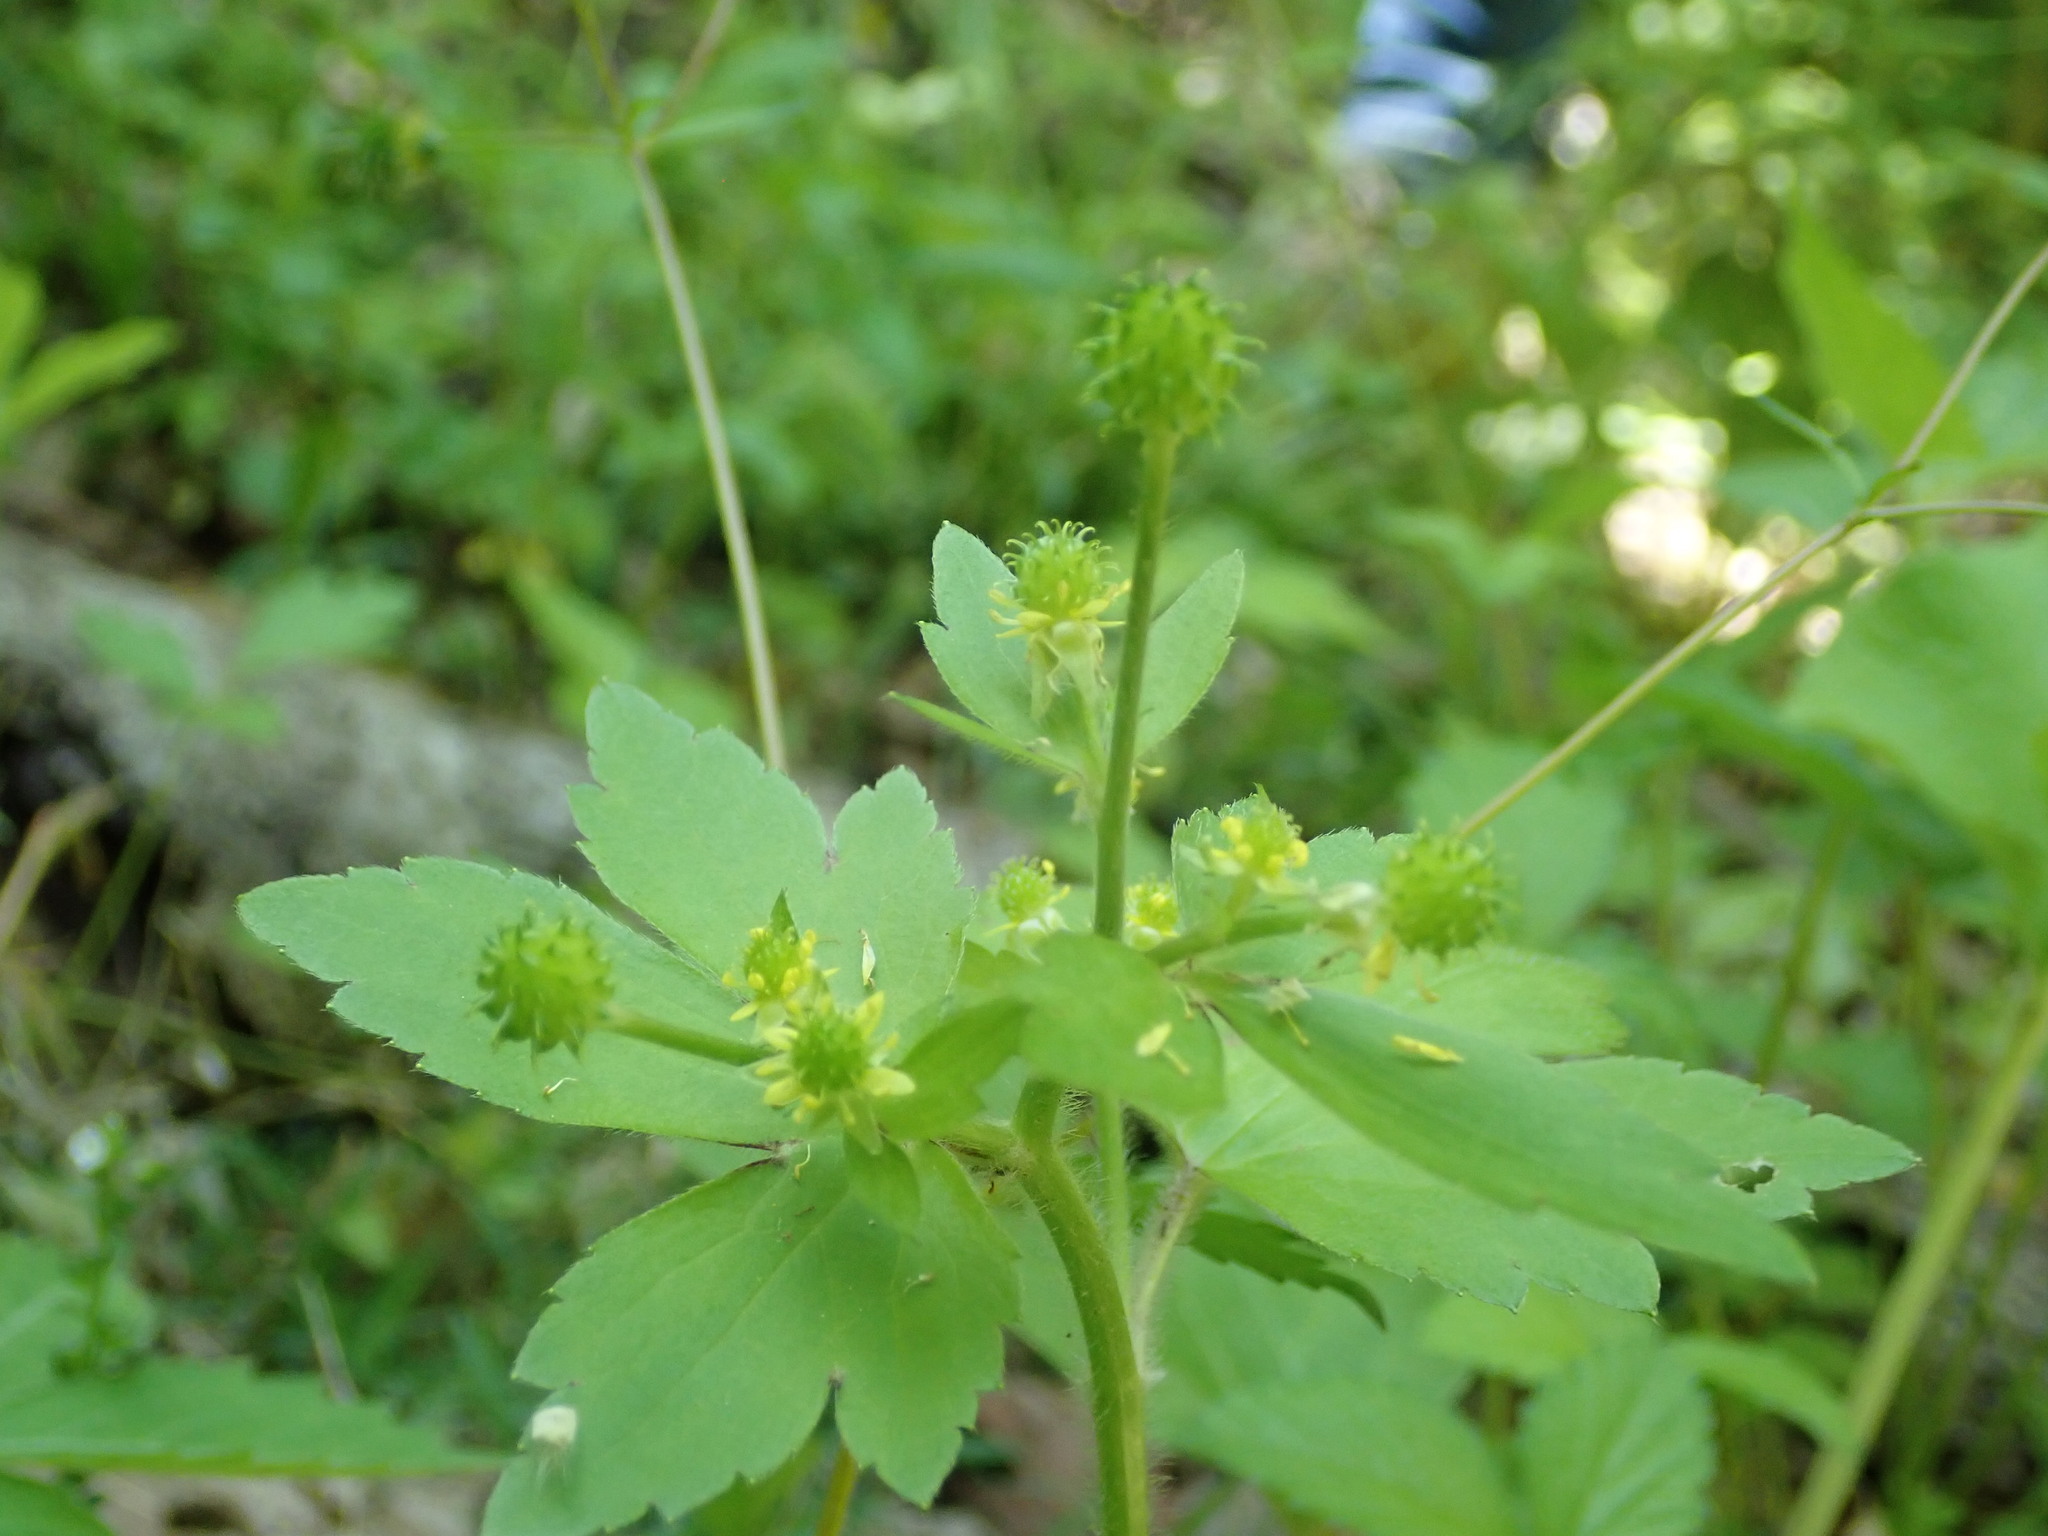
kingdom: Plantae
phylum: Tracheophyta
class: Magnoliopsida
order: Ranunculales
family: Ranunculaceae
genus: Ranunculus
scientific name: Ranunculus recurvatus
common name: Blisterwort
